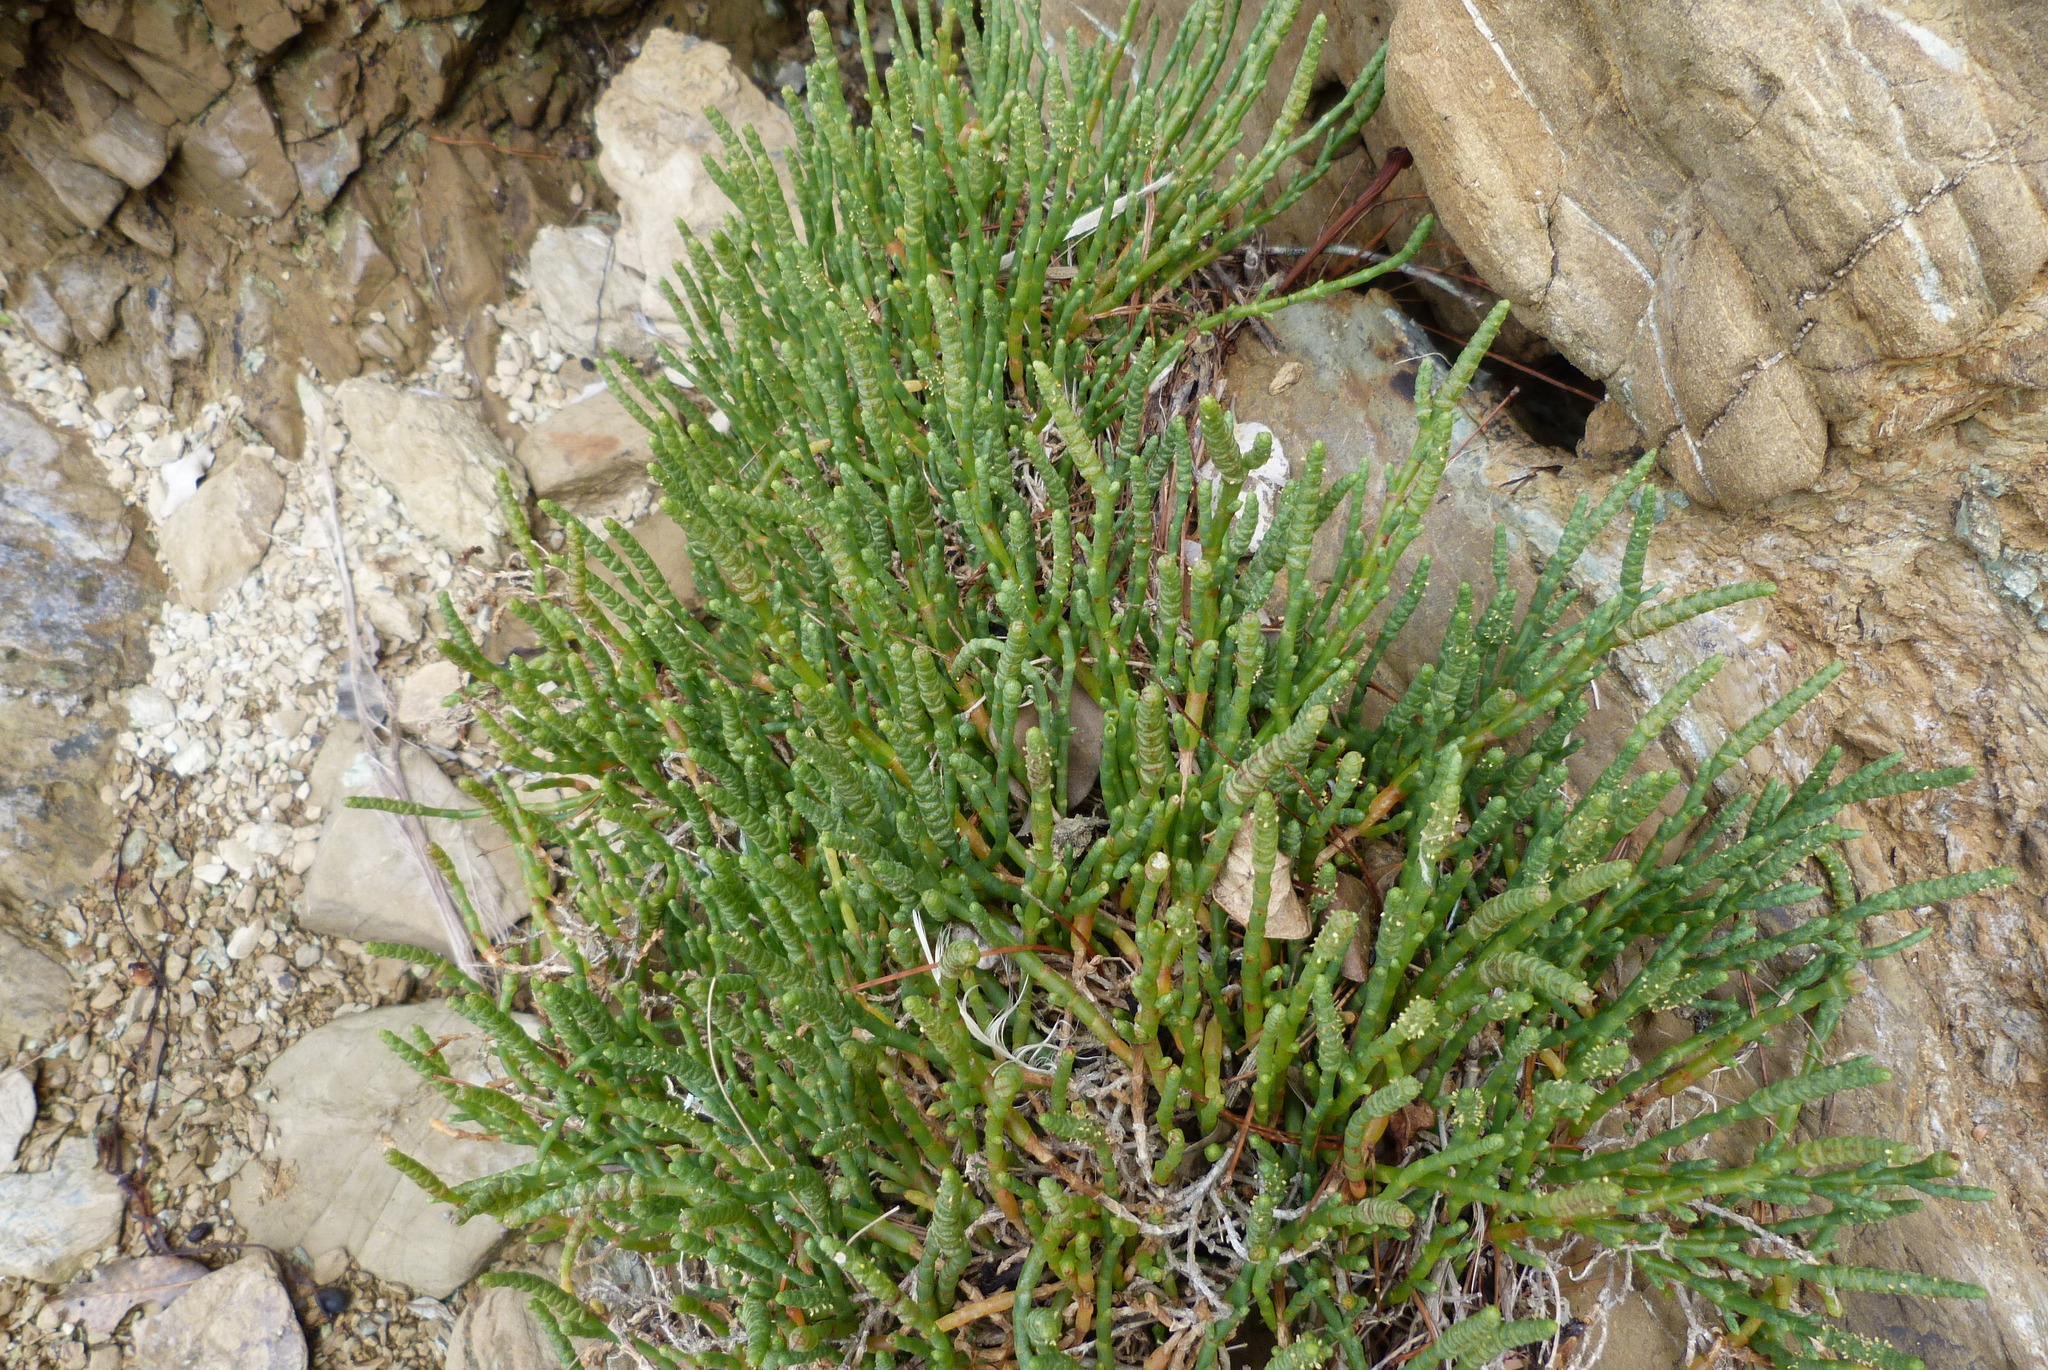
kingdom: Plantae
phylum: Tracheophyta
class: Magnoliopsida
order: Caryophyllales
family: Amaranthaceae
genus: Salicornia
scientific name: Salicornia quinqueflora
